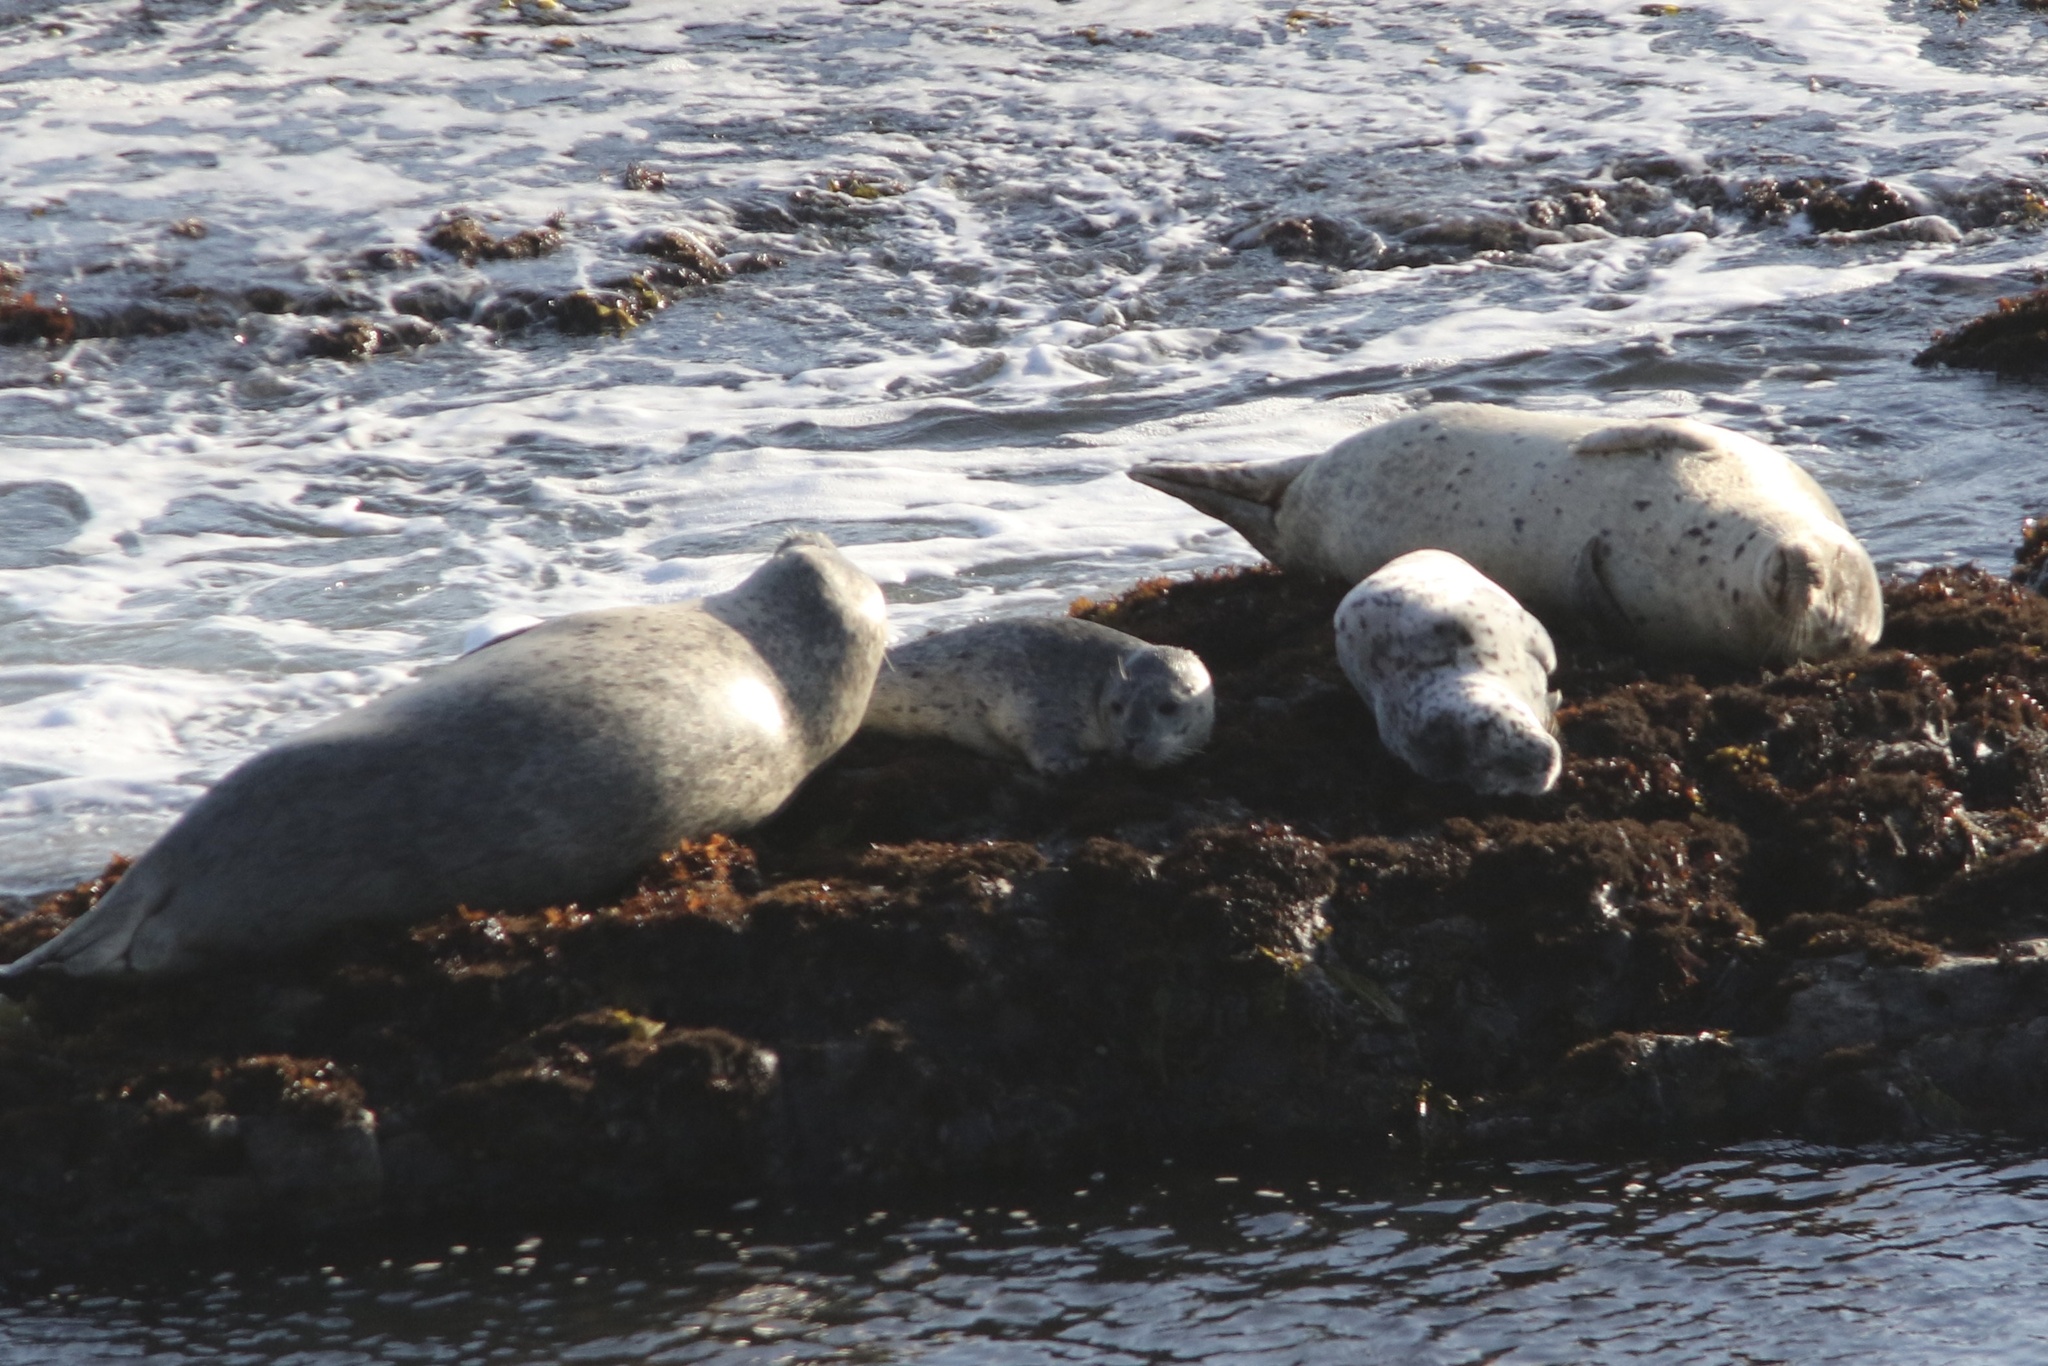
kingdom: Animalia
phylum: Chordata
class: Mammalia
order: Carnivora
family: Phocidae
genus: Phoca
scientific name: Phoca vitulina
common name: Harbor seal
